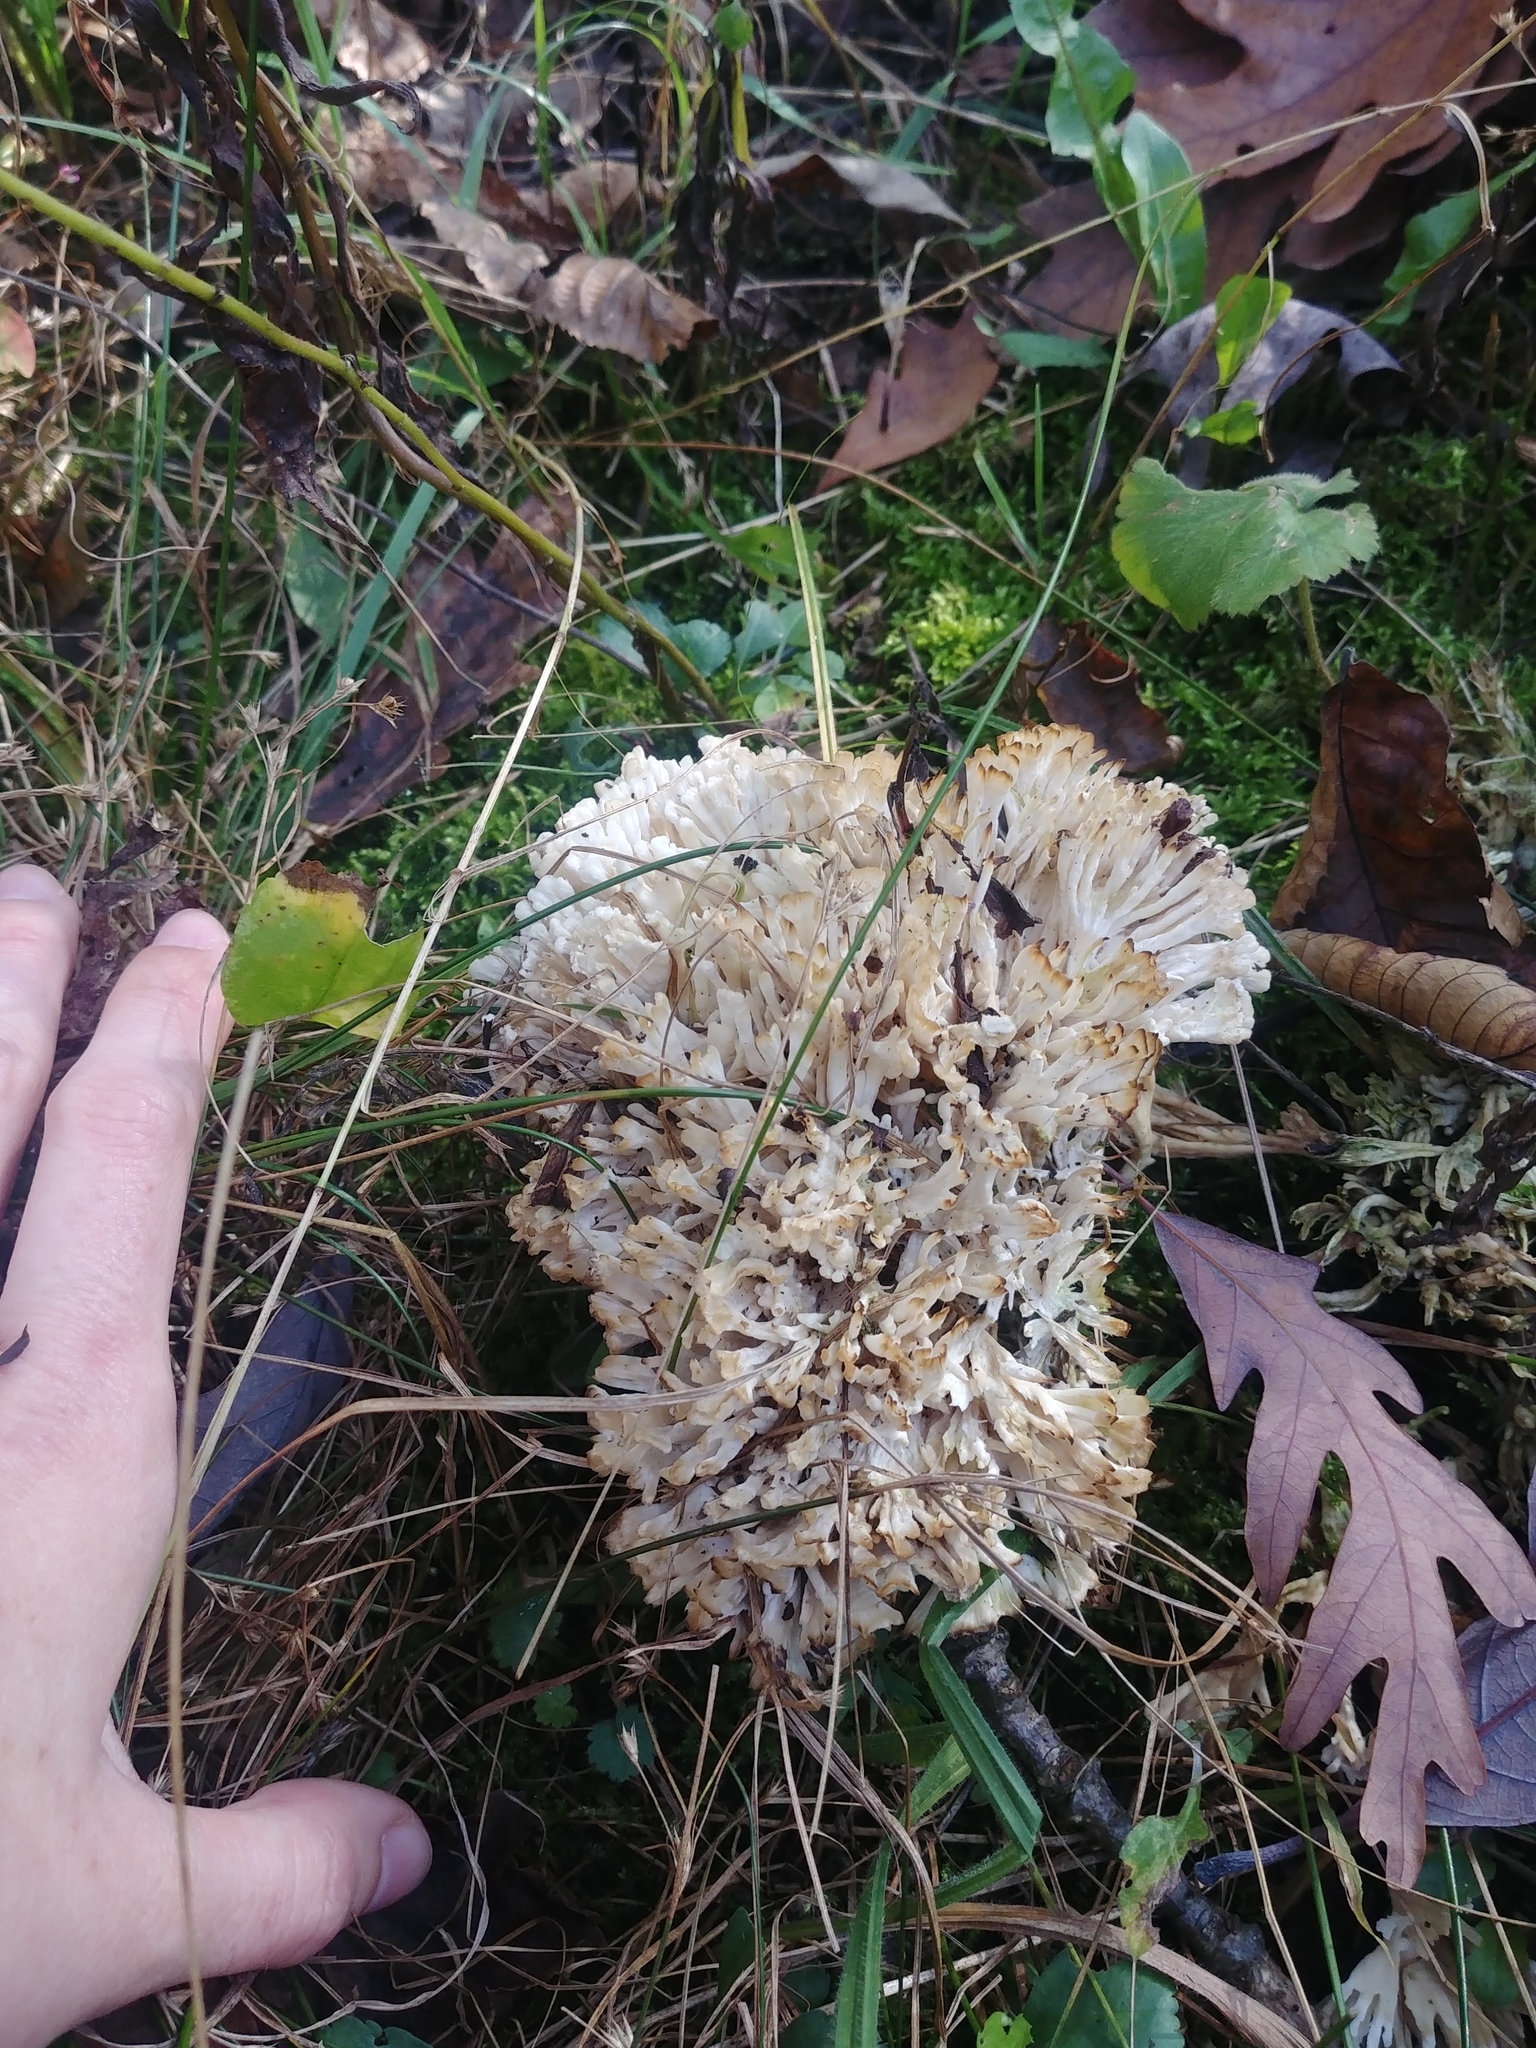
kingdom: Fungi
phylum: Basidiomycota
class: Agaricomycetes
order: Sebacinales
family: Sebacinaceae
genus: Sebacina
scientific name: Sebacina schweinitzii
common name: Jellied false coral fungus
